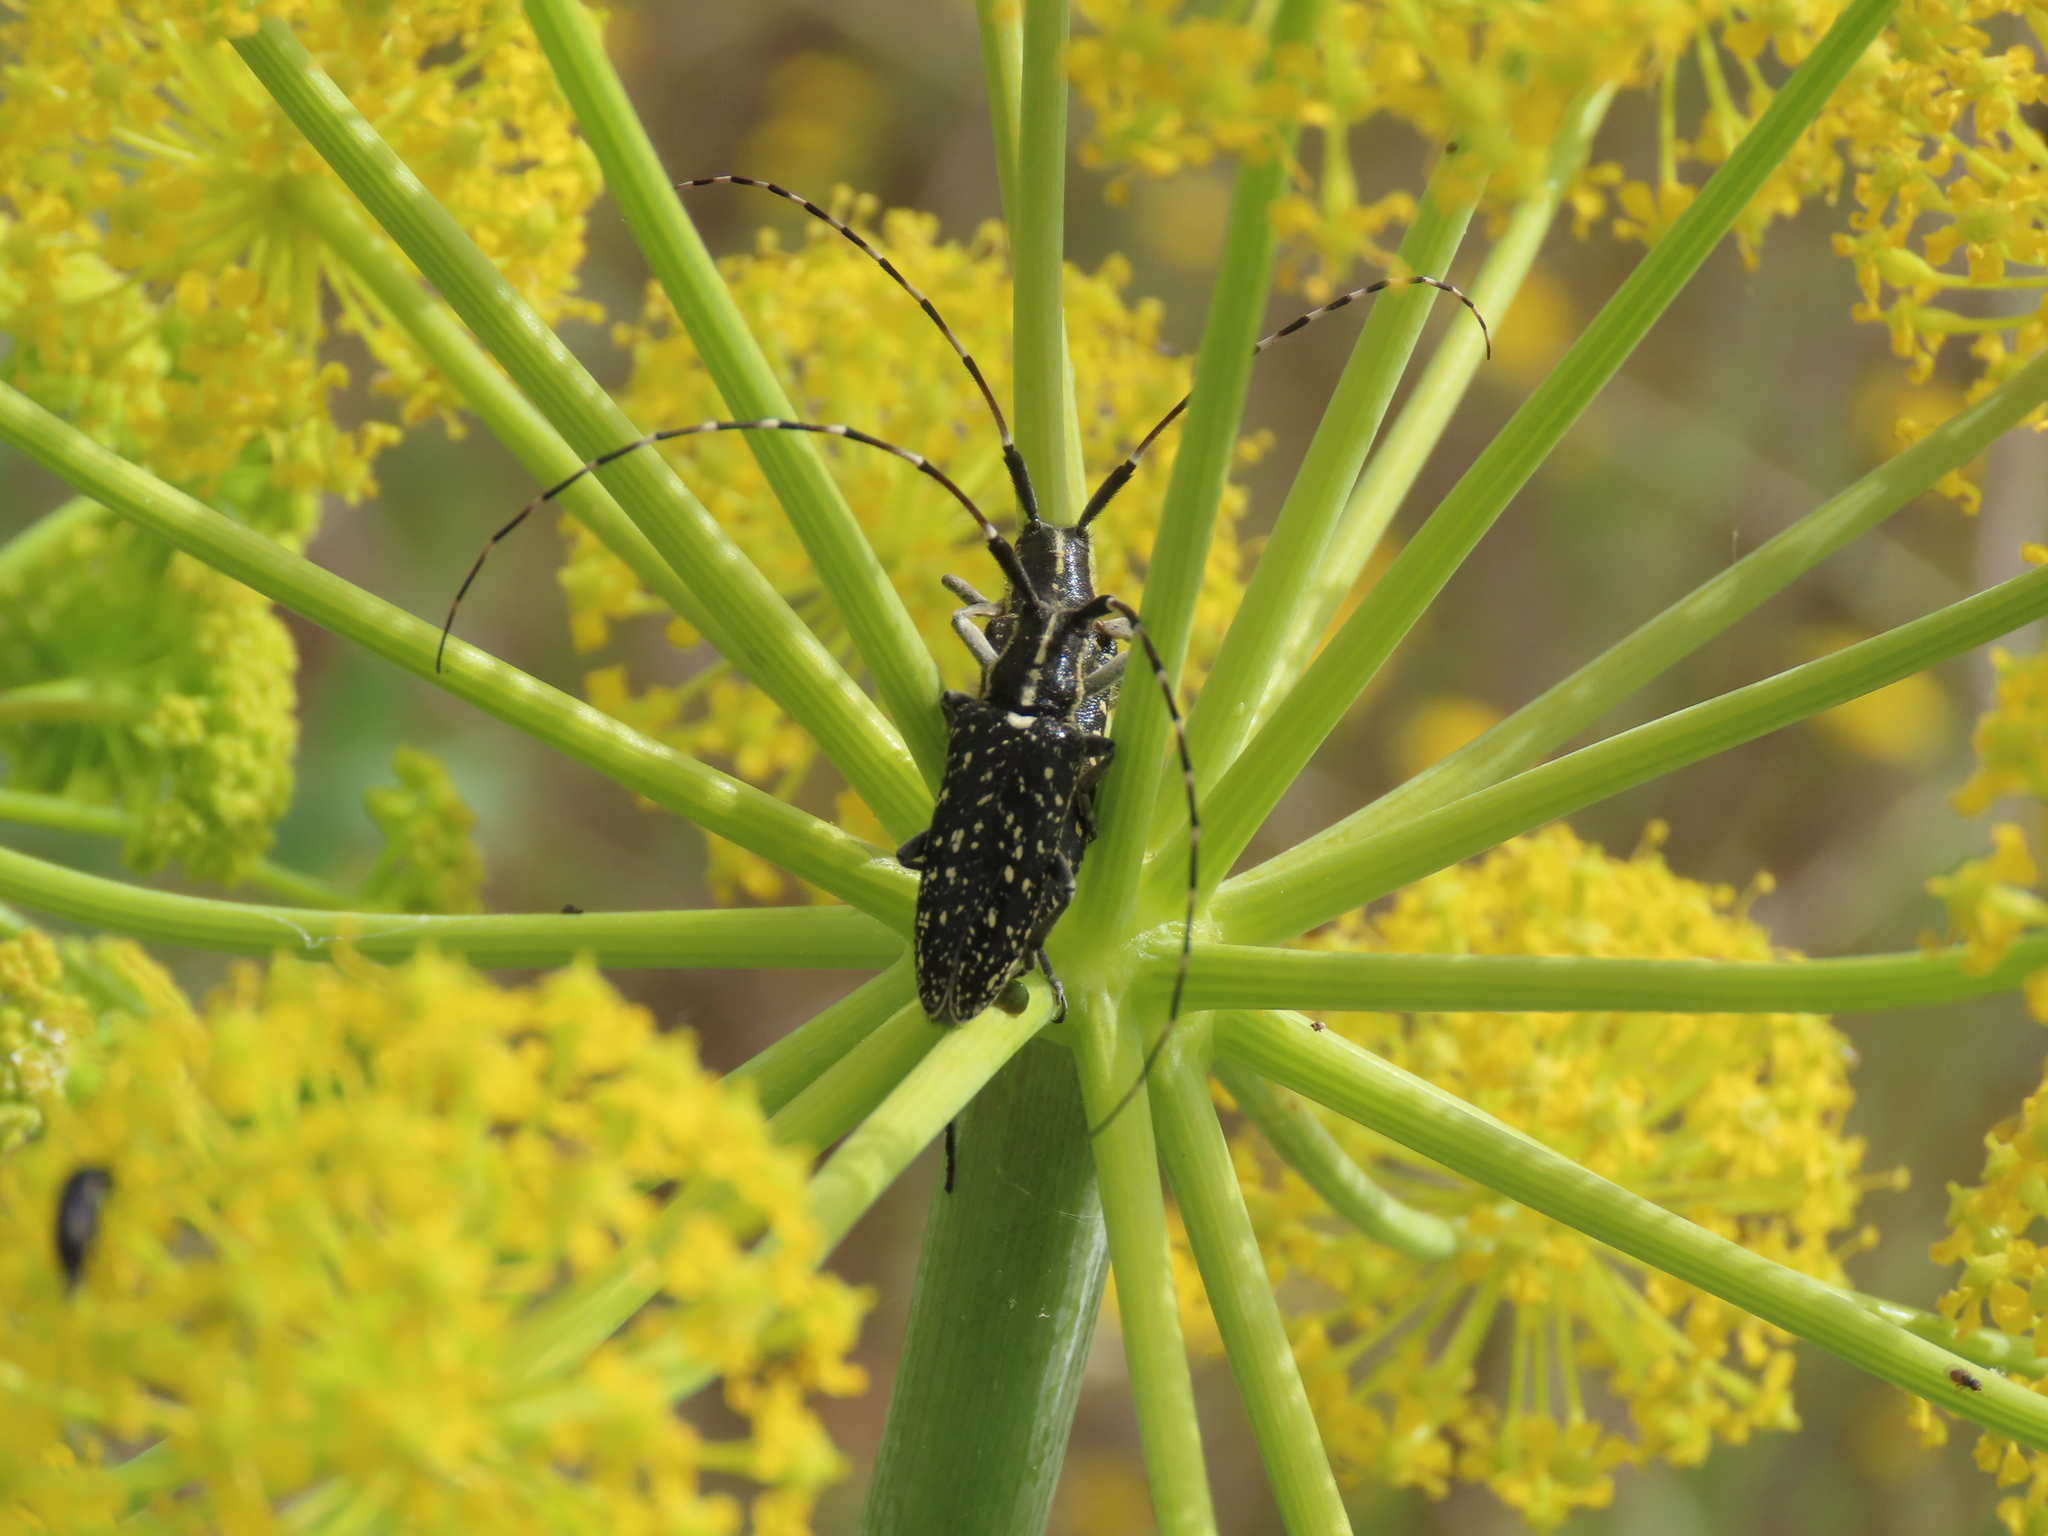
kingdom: Animalia
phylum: Arthropoda
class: Insecta
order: Coleoptera
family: Cerambycidae
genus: Agapanthia
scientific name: Agapanthia irrorata
